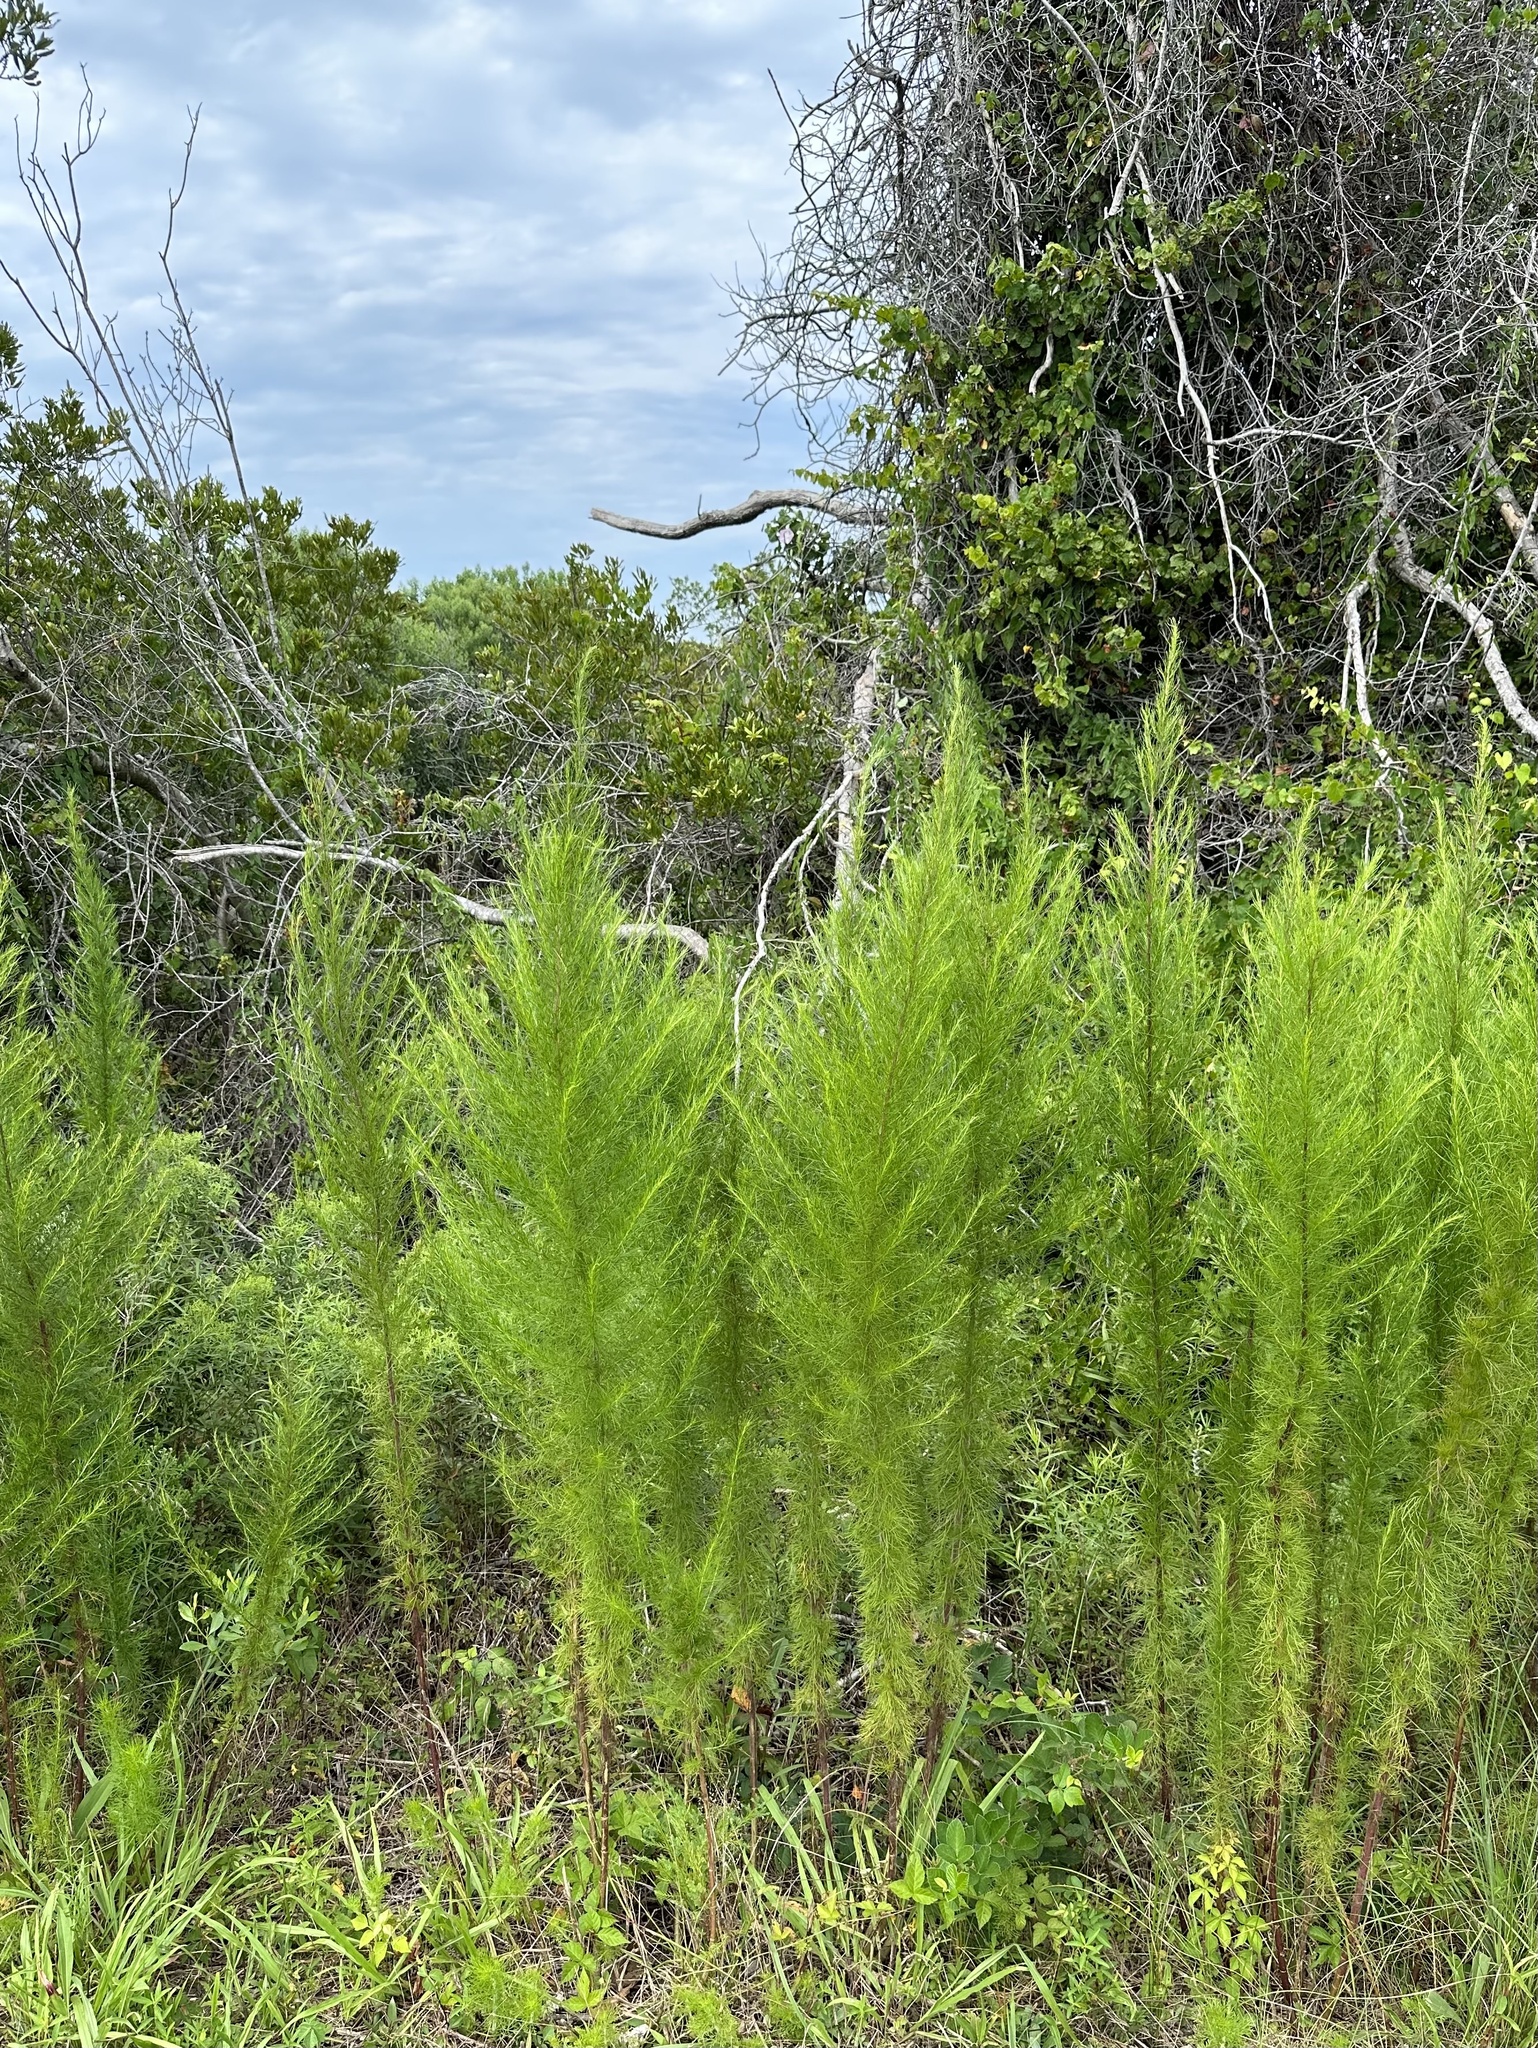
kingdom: Plantae
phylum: Tracheophyta
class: Magnoliopsida
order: Asterales
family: Asteraceae
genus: Eupatorium
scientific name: Eupatorium capillifolium
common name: Dog-fennel
